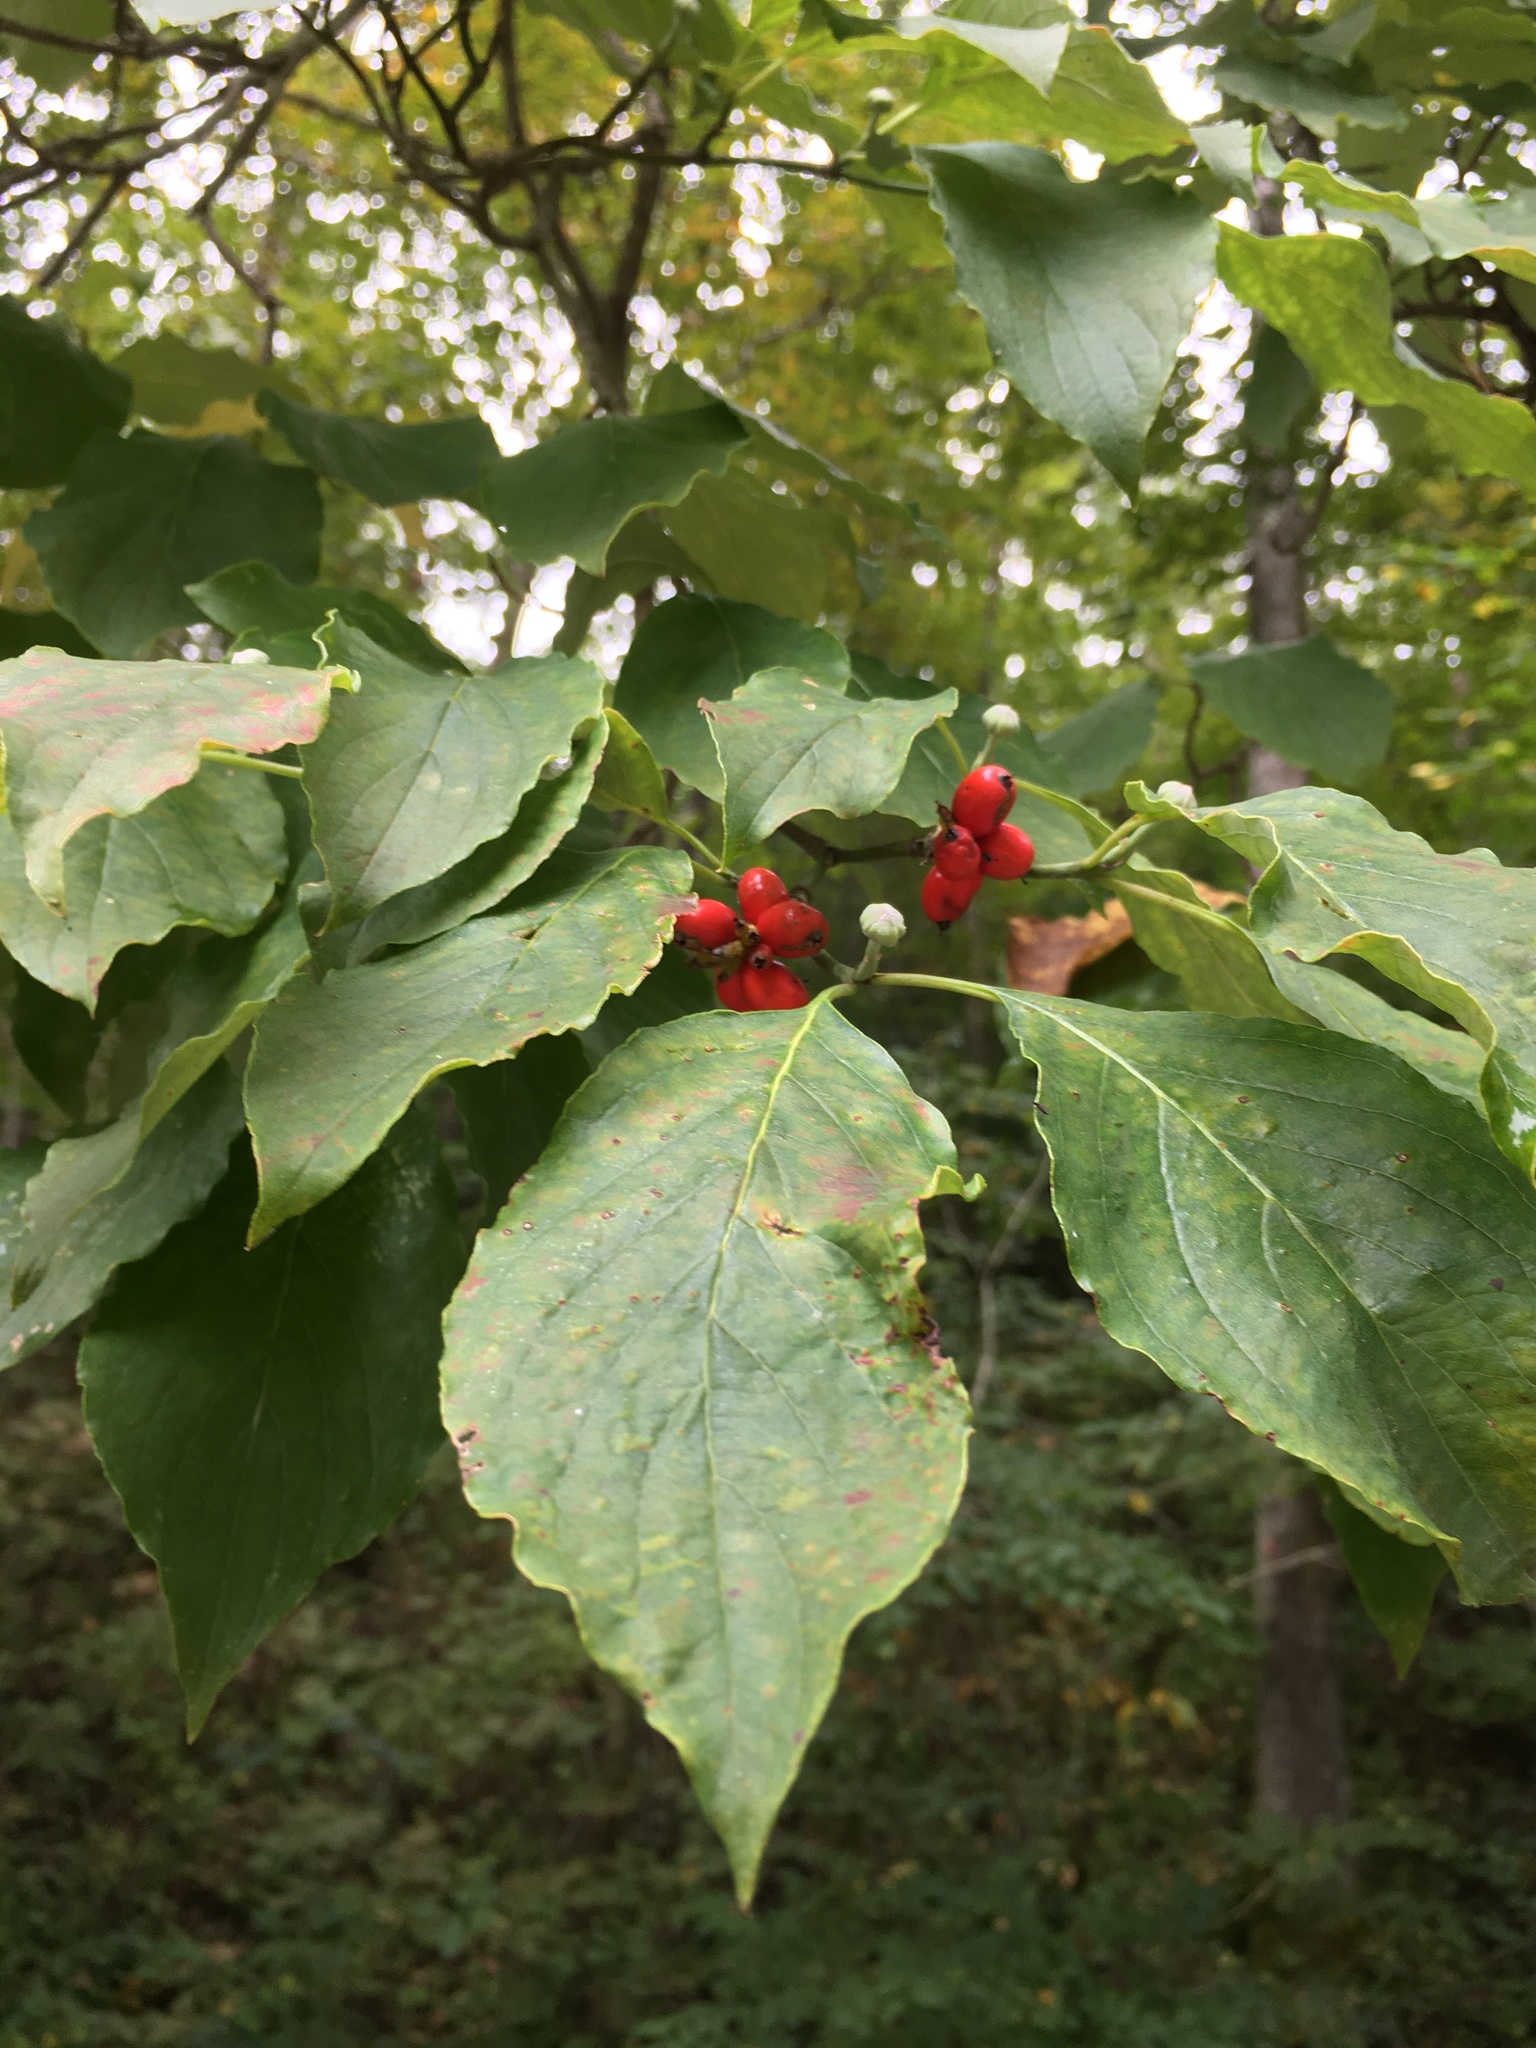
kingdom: Plantae
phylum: Tracheophyta
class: Magnoliopsida
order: Cornales
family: Cornaceae
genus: Cornus
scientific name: Cornus florida
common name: Flowering dogwood
